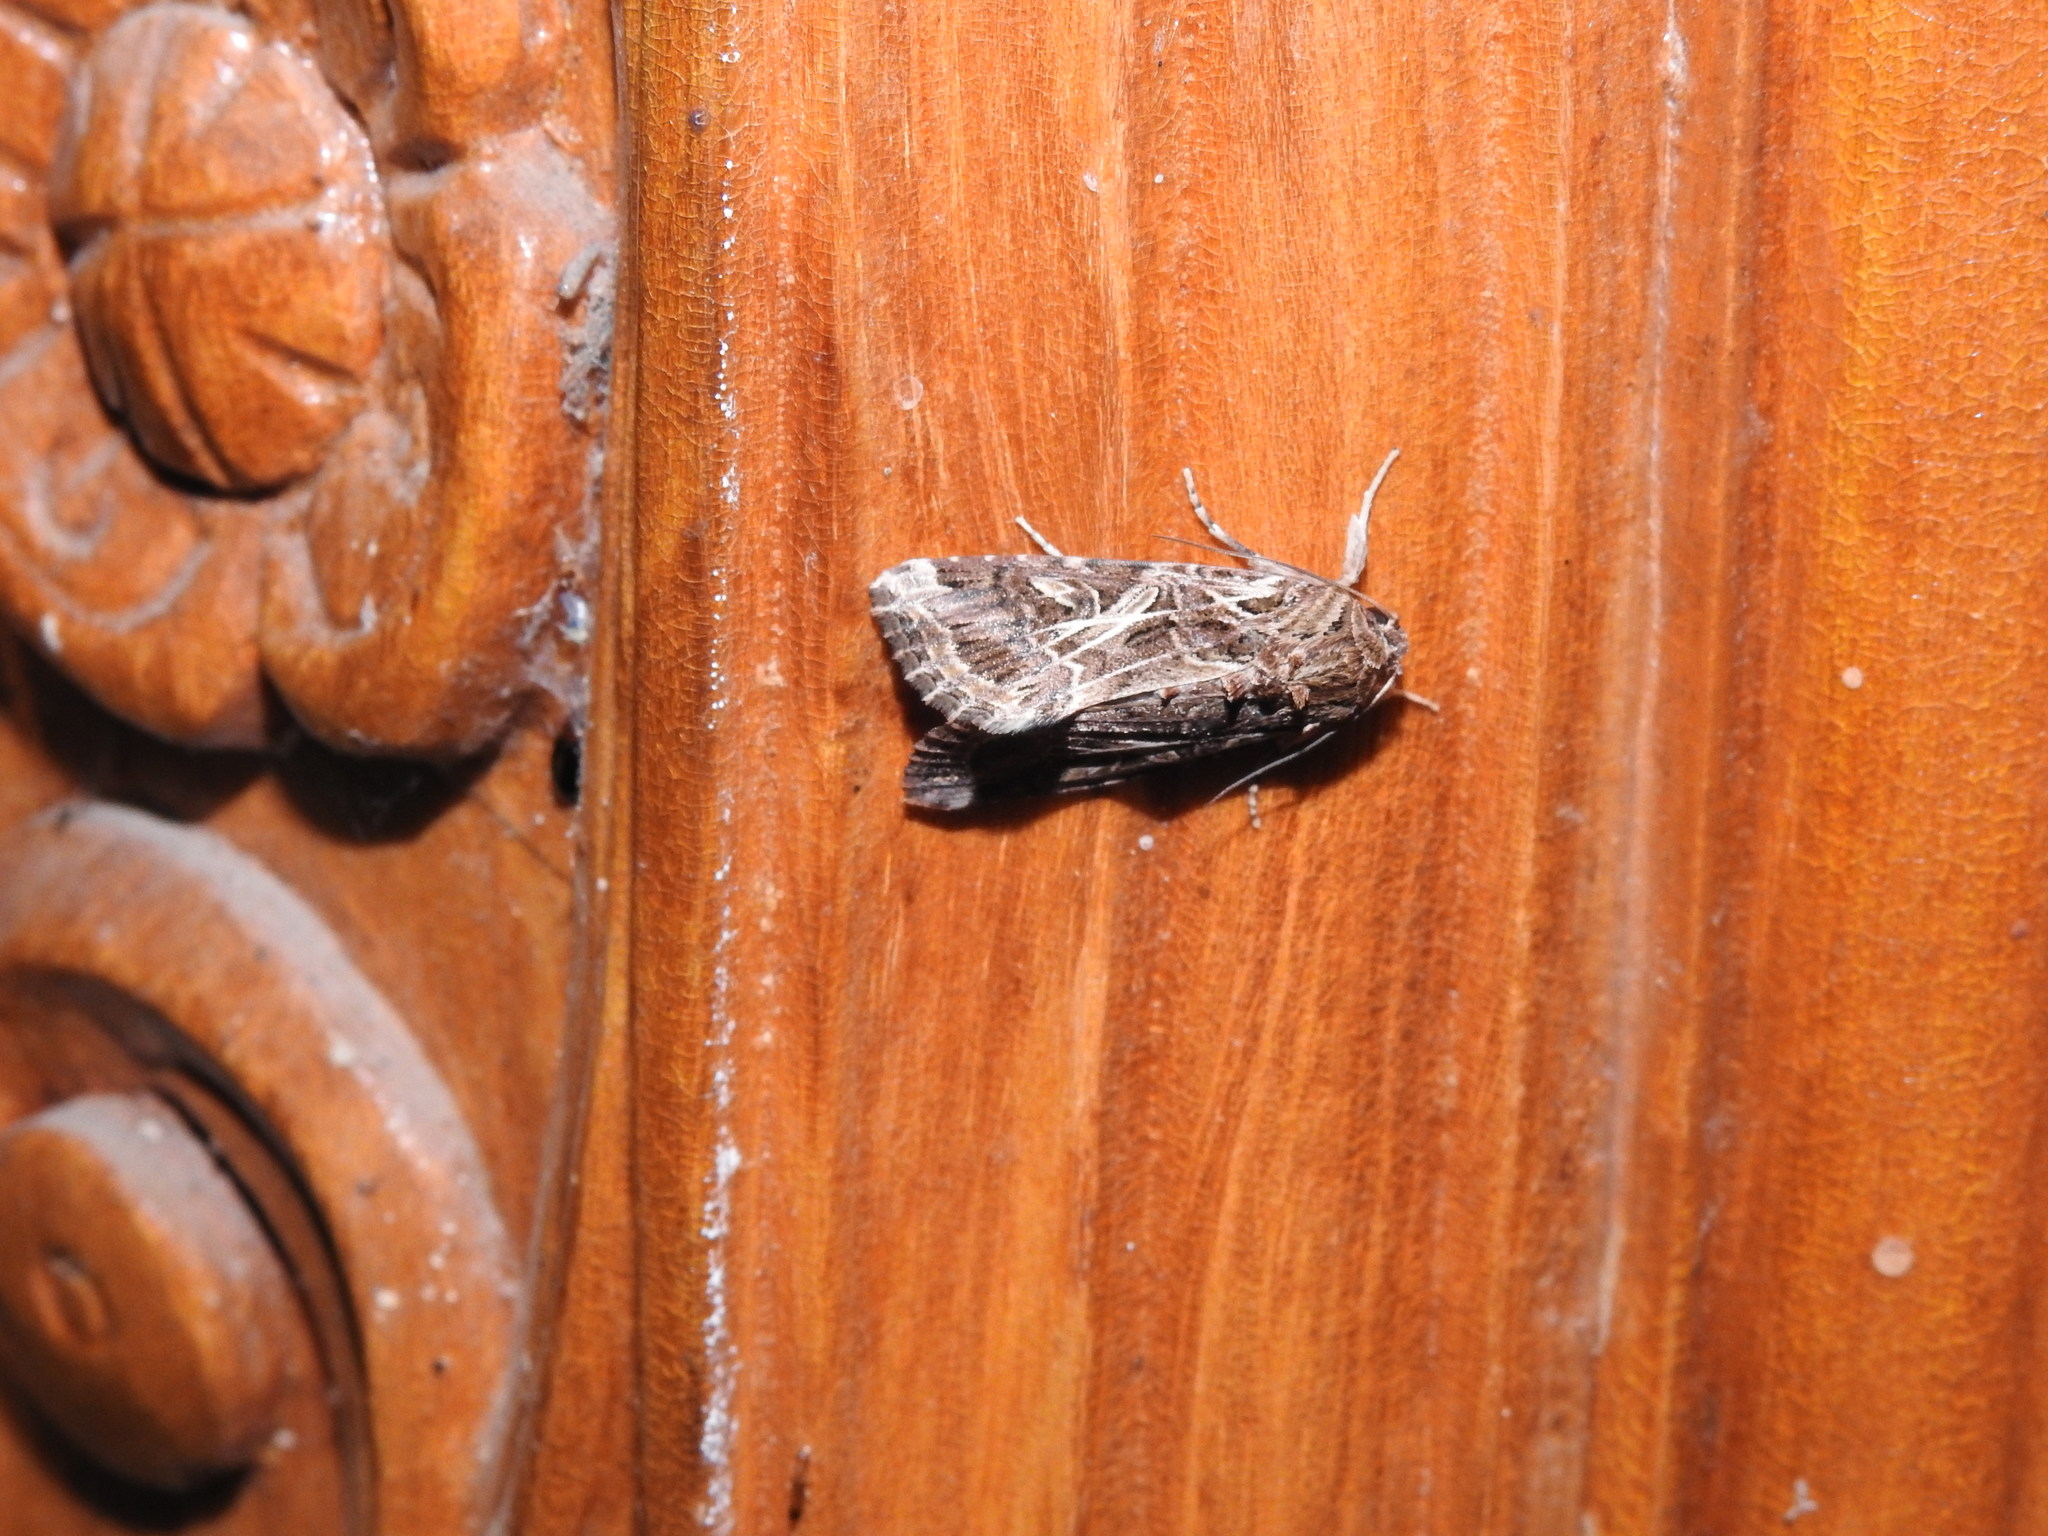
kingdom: Animalia
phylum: Arthropoda
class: Insecta
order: Lepidoptera
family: Noctuidae
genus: Spodoptera
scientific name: Spodoptera litura
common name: Asian cotton leafworm
